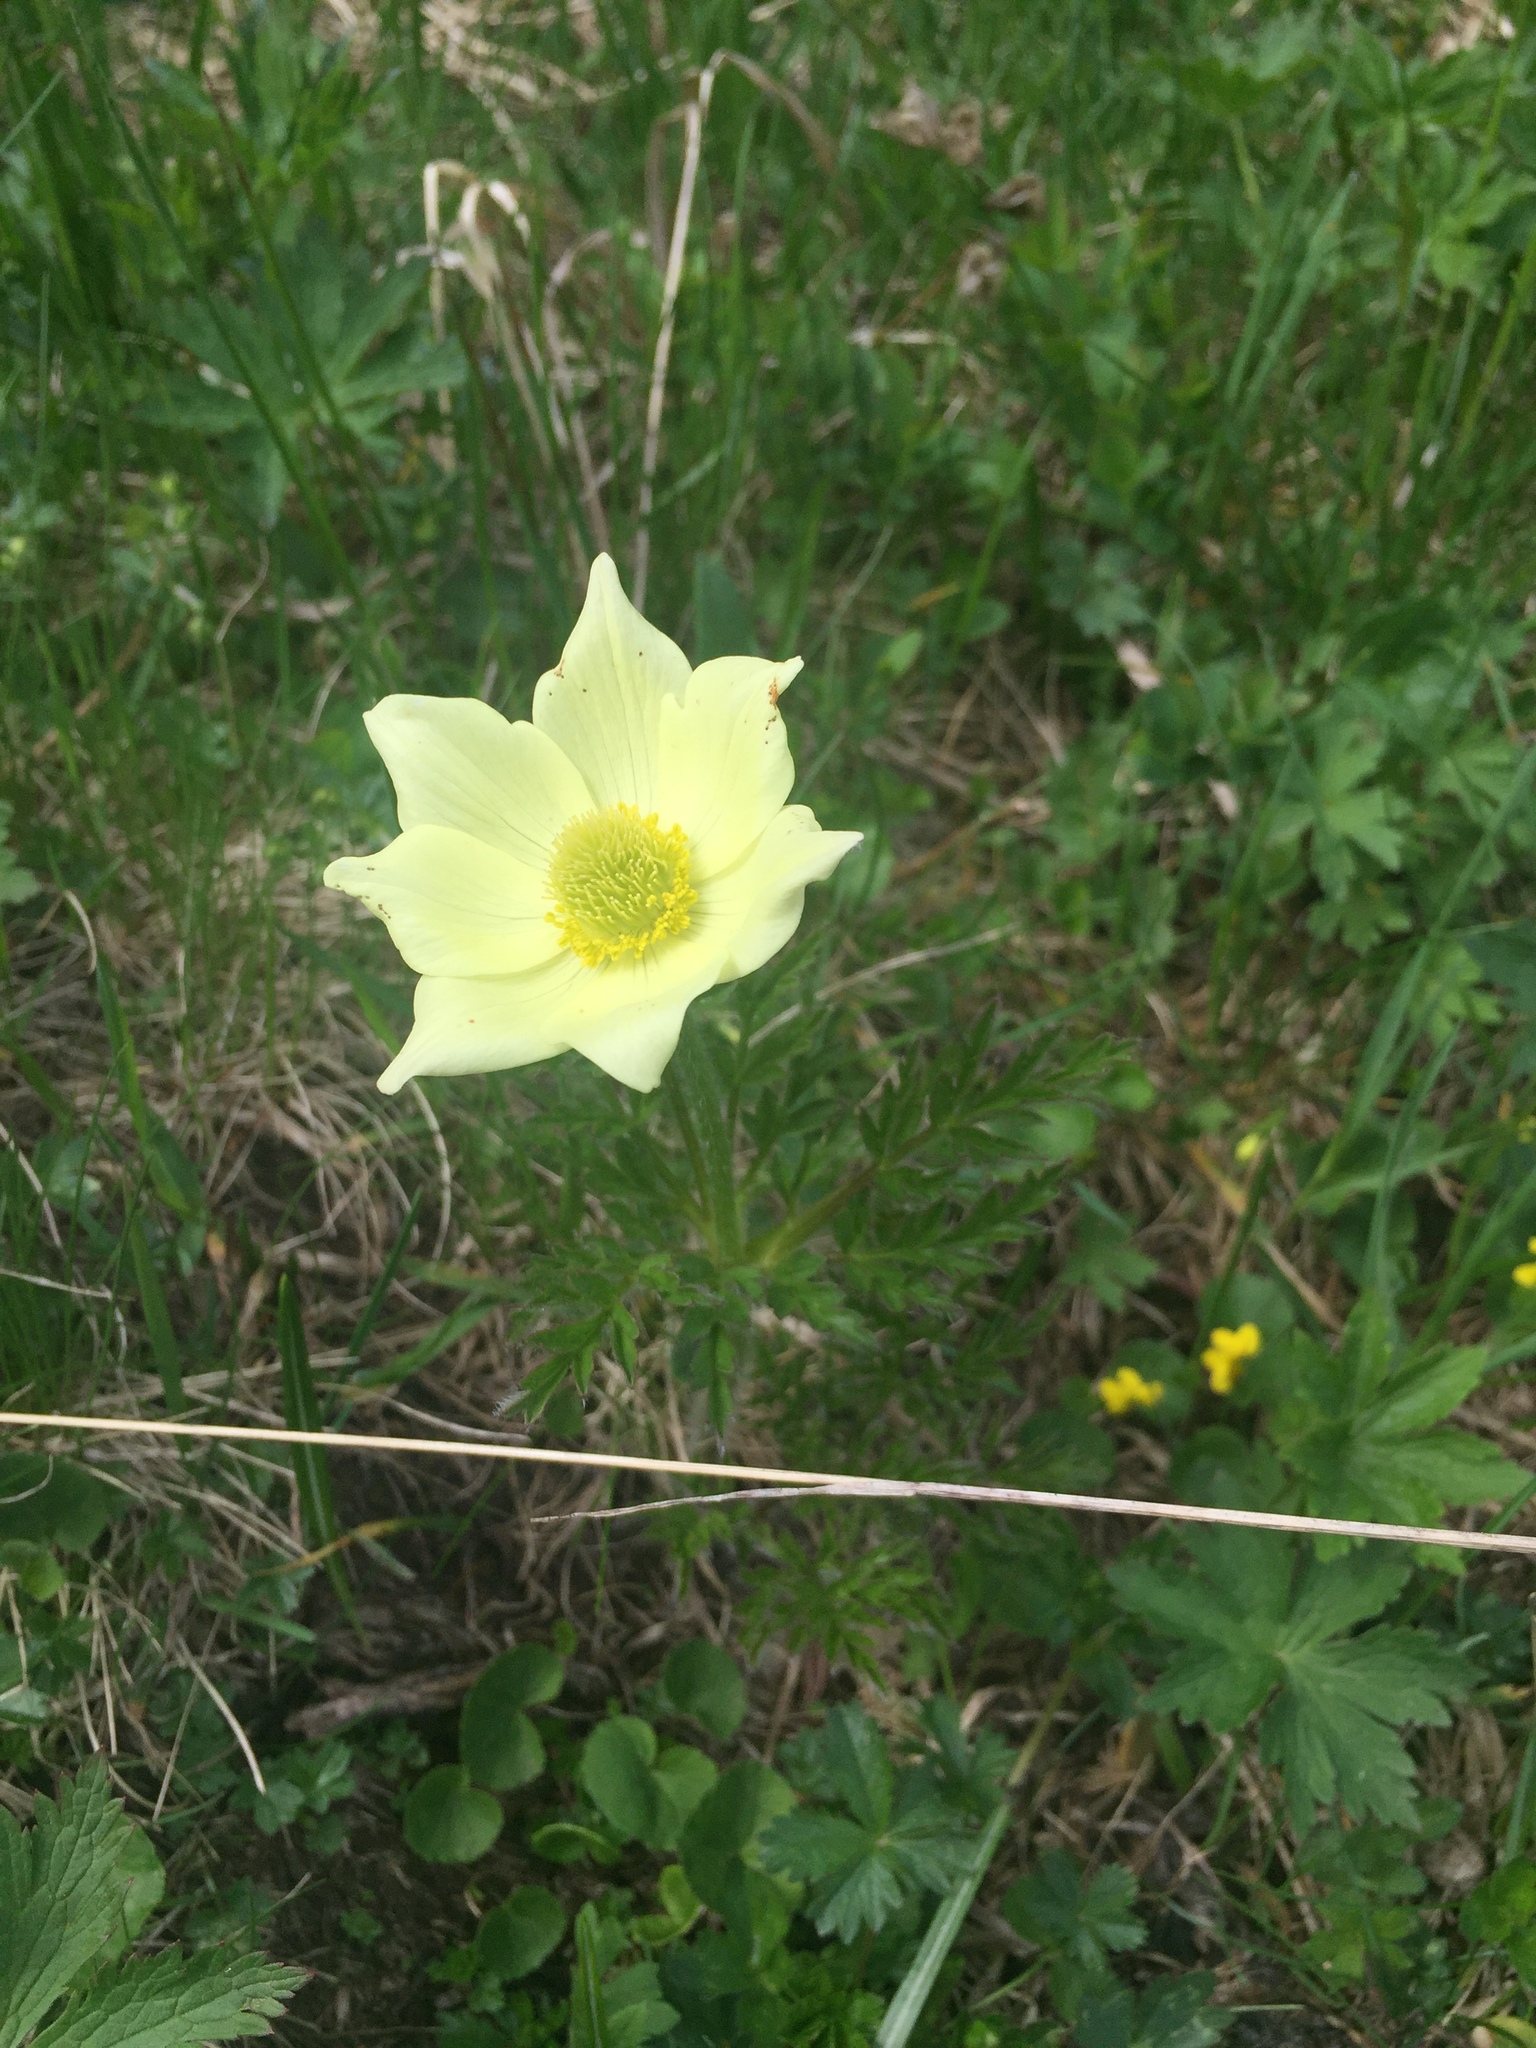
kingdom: Plantae
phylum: Tracheophyta
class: Magnoliopsida
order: Ranunculales
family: Ranunculaceae
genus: Pulsatilla
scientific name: Pulsatilla alpina
